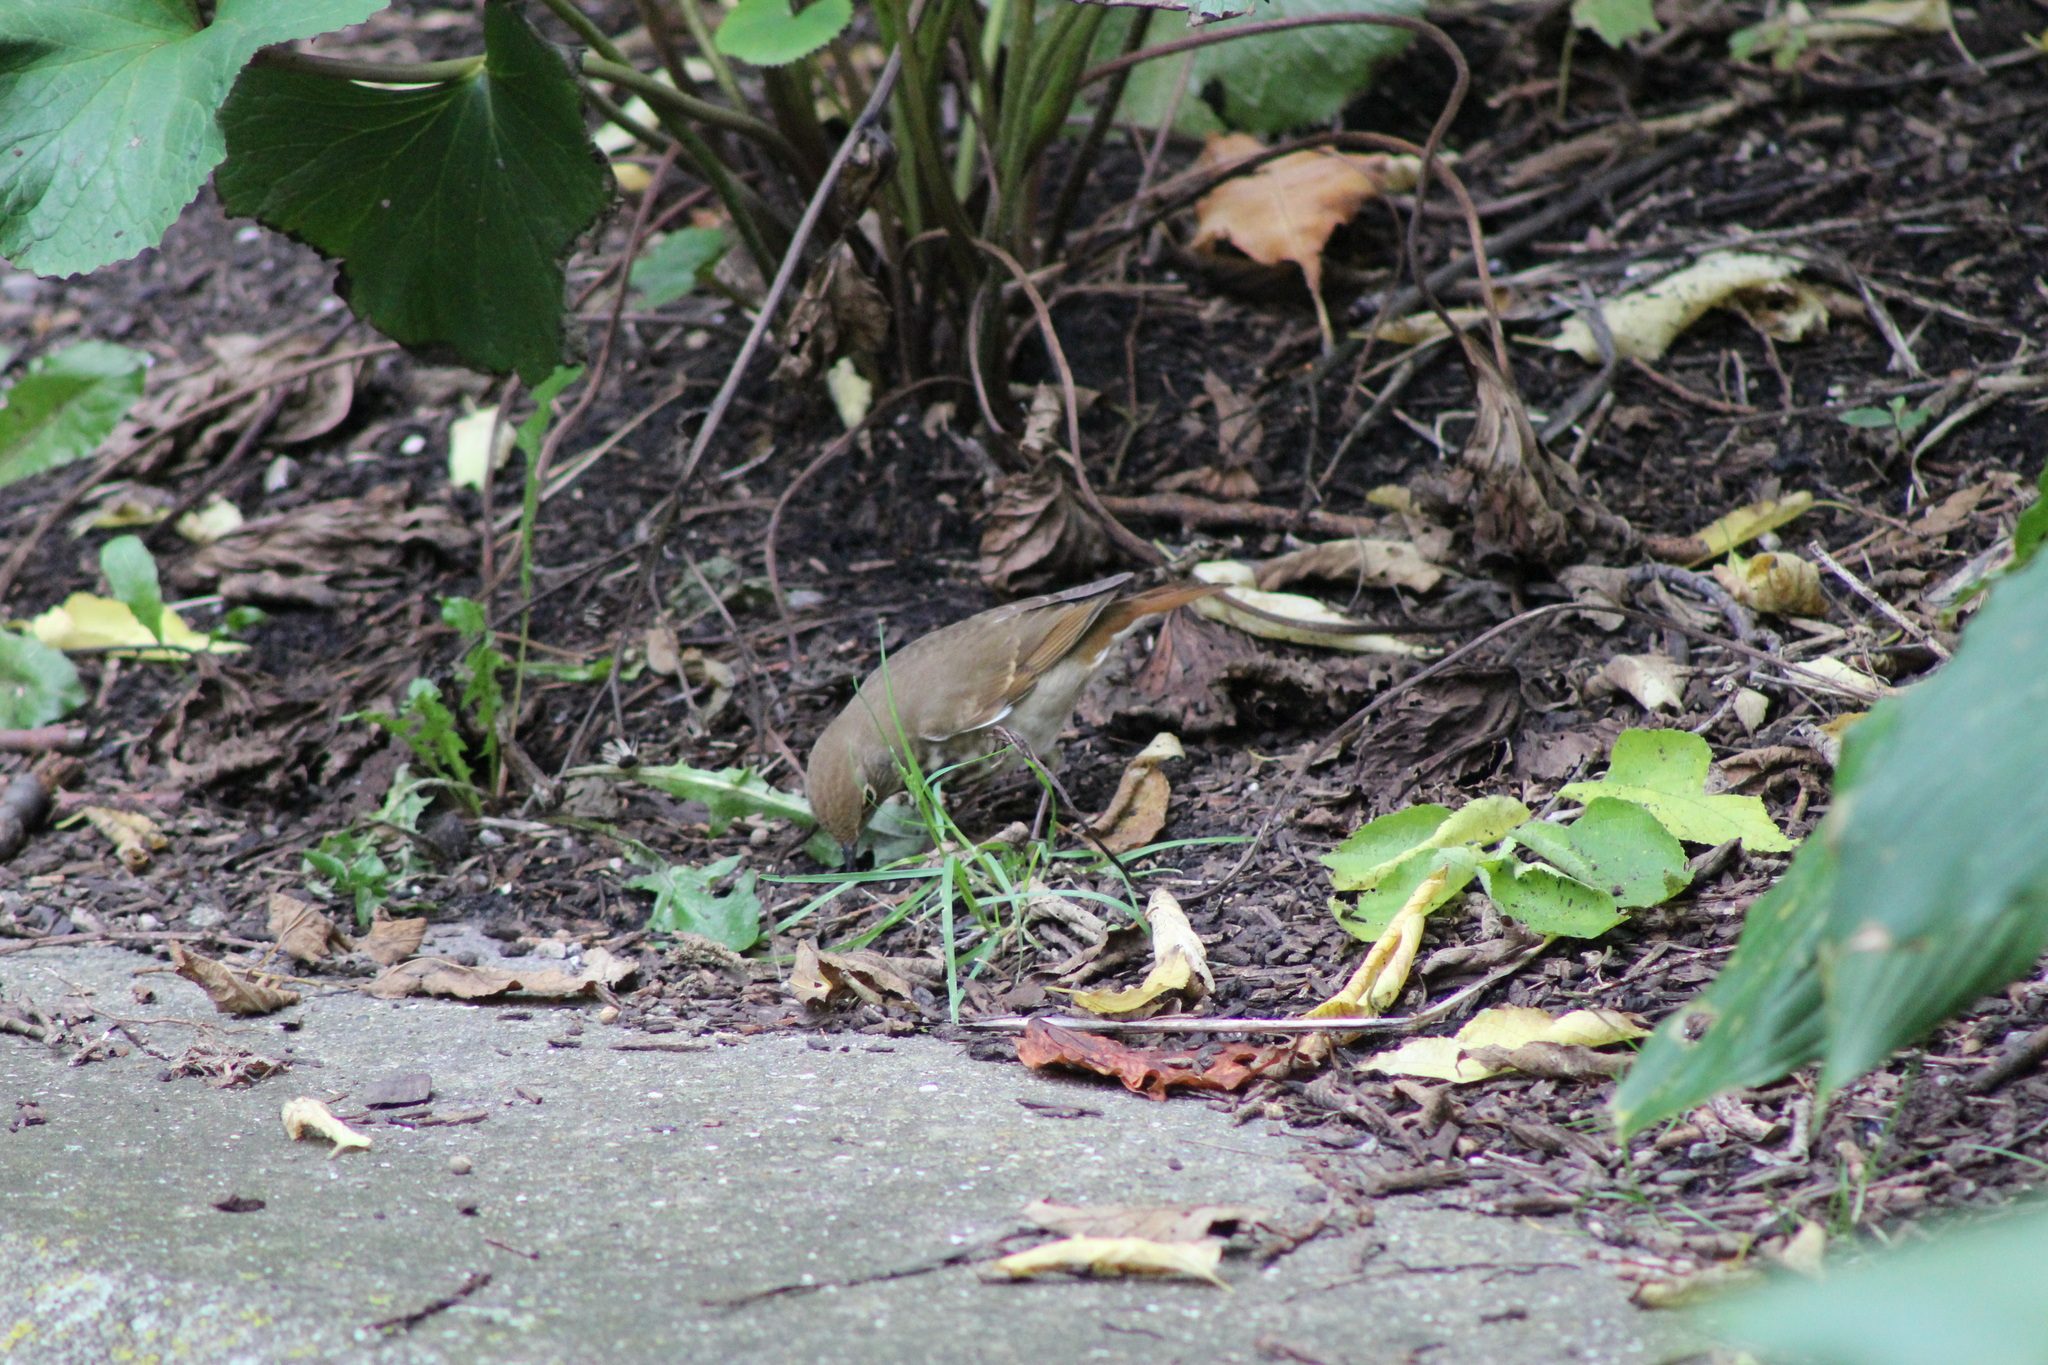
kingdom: Animalia
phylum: Chordata
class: Aves
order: Passeriformes
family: Turdidae
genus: Catharus
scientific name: Catharus guttatus
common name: Hermit thrush
